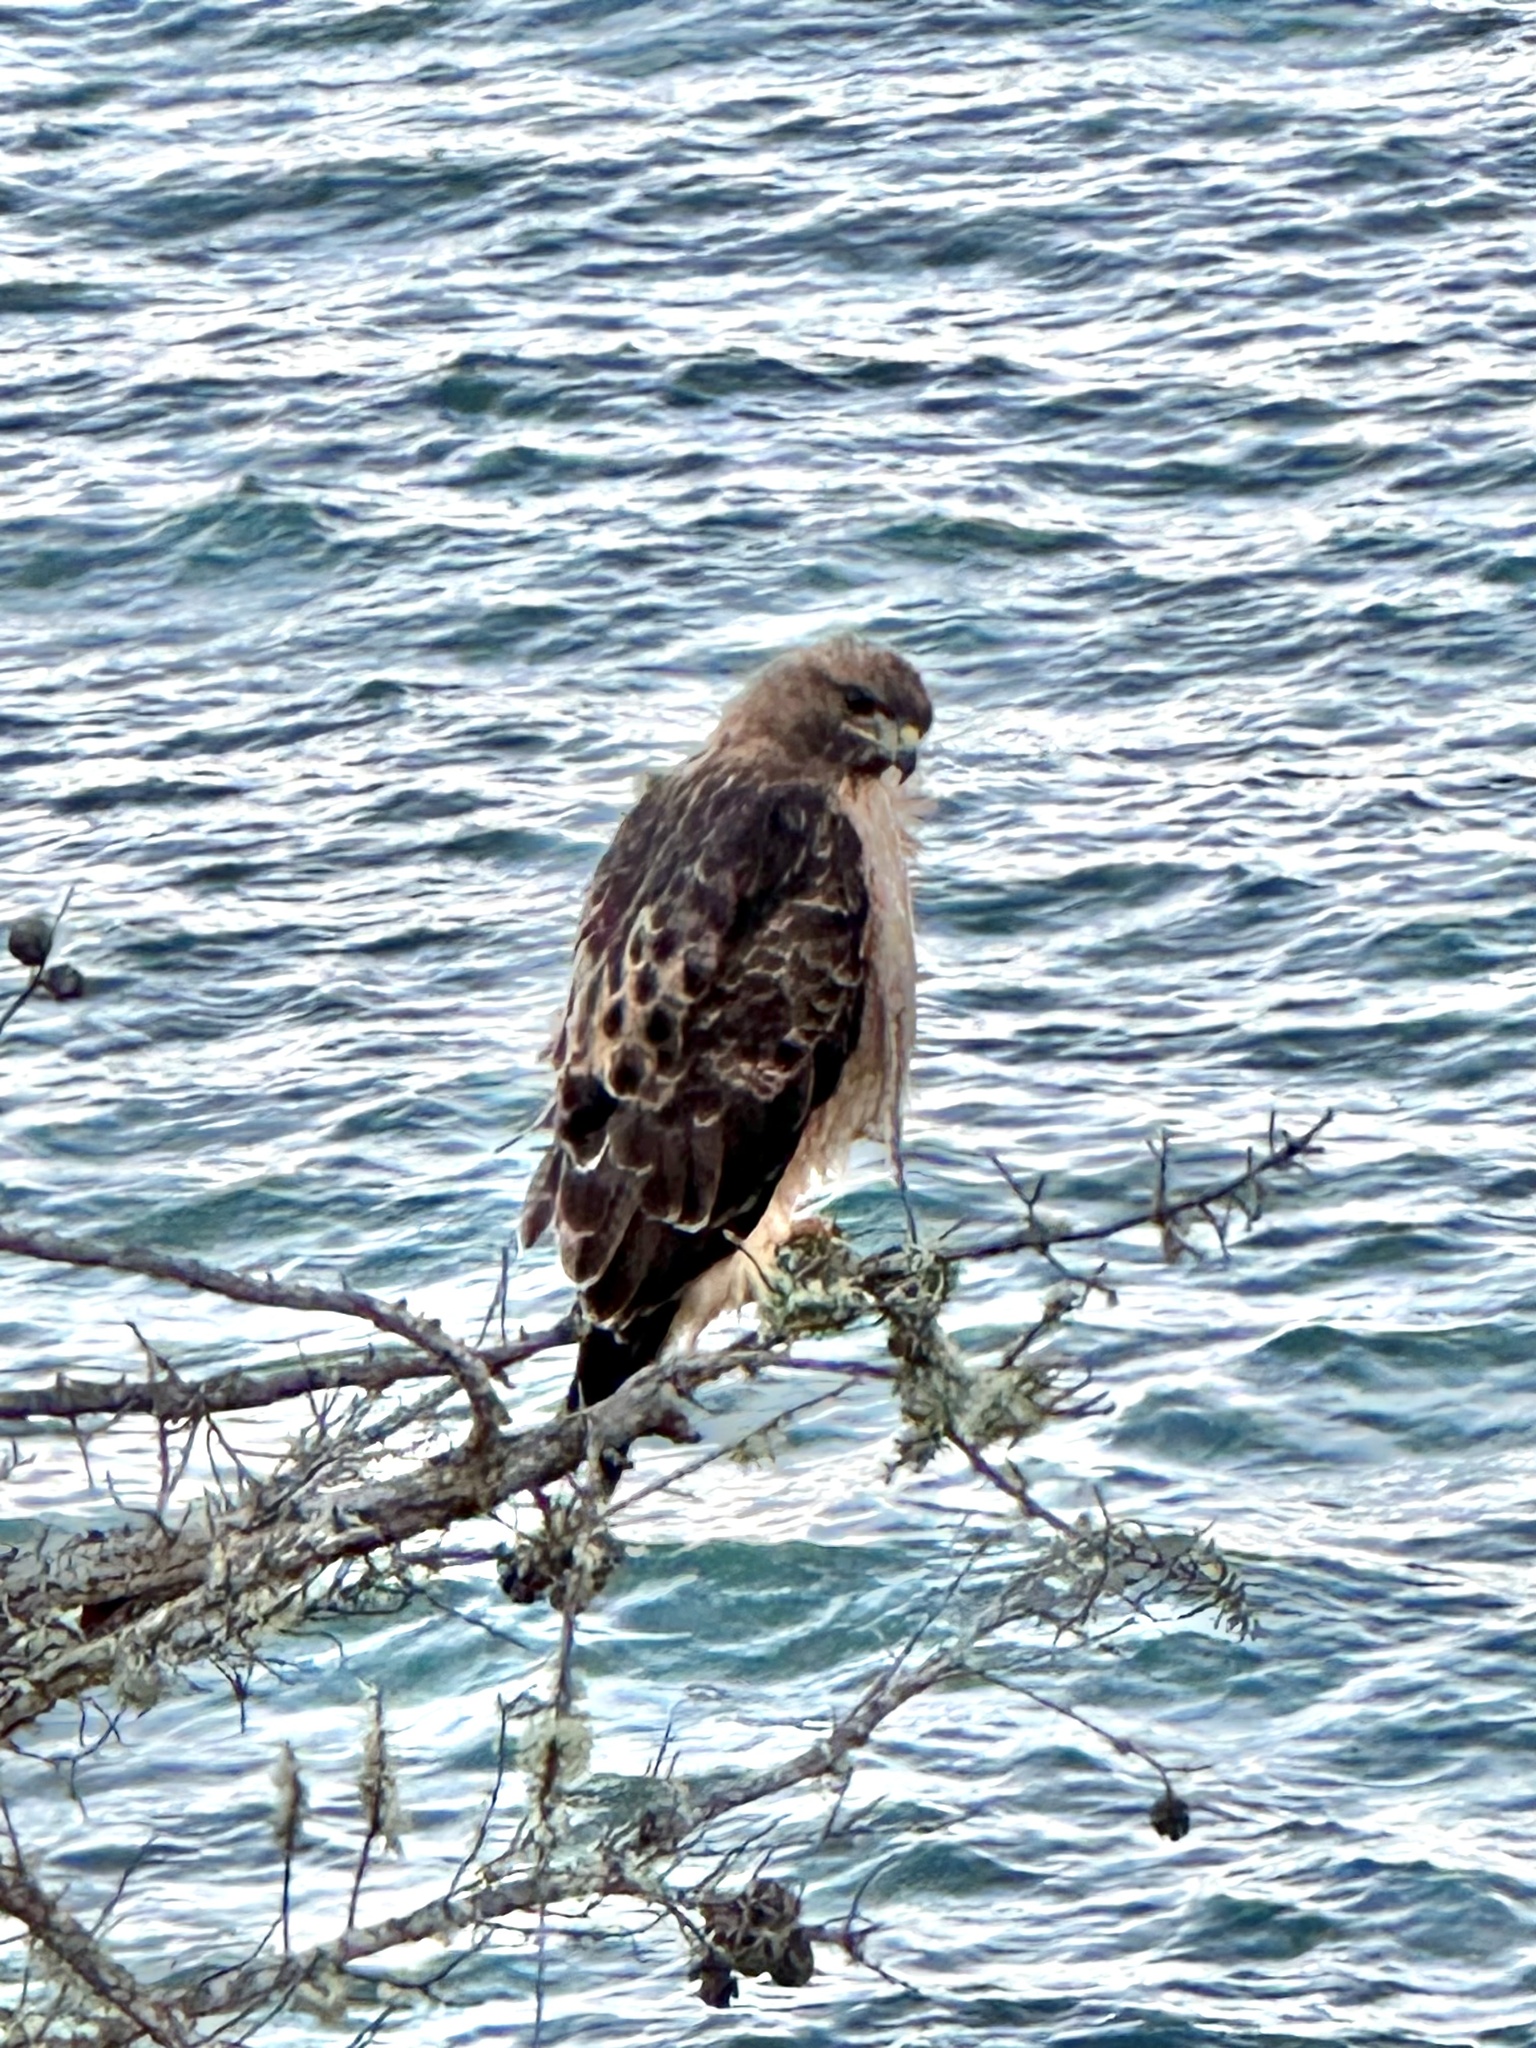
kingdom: Animalia
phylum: Chordata
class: Aves
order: Accipitriformes
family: Accipitridae
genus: Buteo
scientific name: Buteo jamaicensis
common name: Red-tailed hawk
